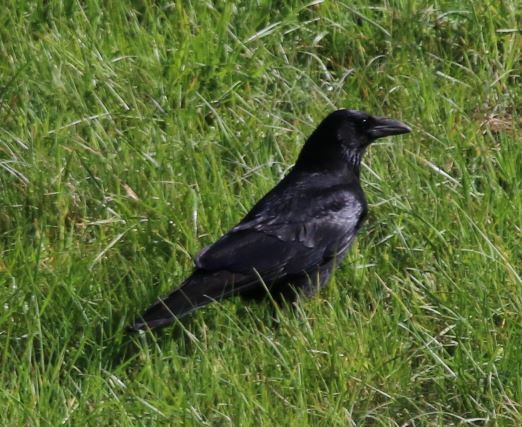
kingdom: Animalia
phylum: Chordata
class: Aves
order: Passeriformes
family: Corvidae
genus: Corvus
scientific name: Corvus corone
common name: Carrion crow
